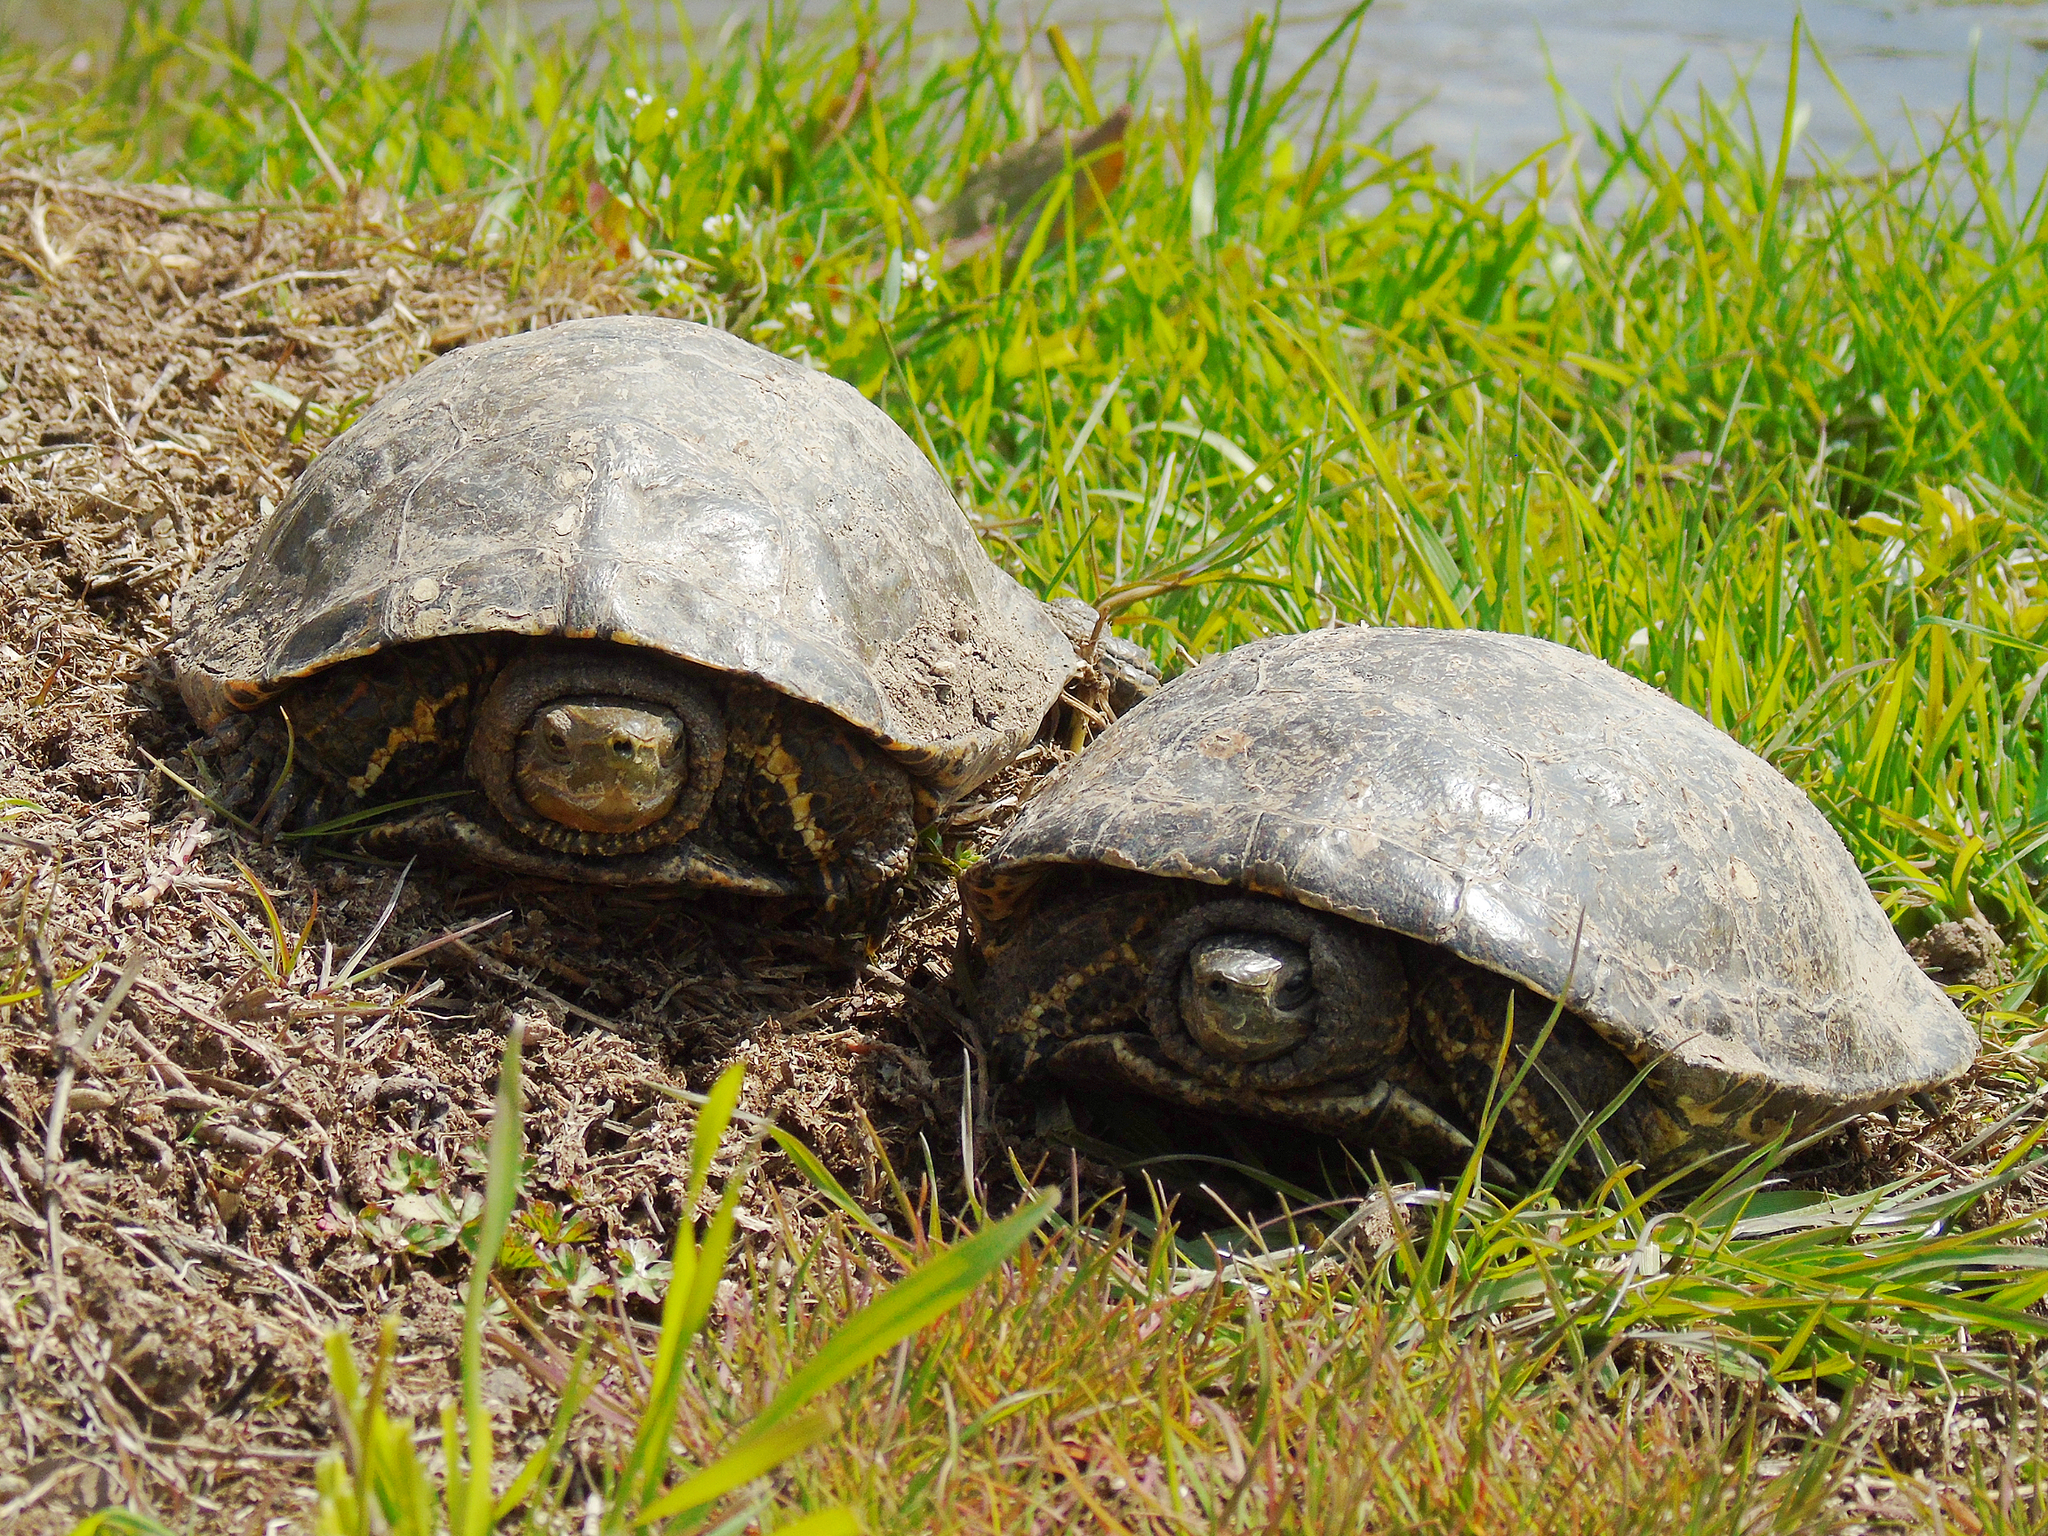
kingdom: Animalia
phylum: Chordata
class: Testudines
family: Geoemydidae
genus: Mauremys
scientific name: Mauremys caspica
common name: Caspian turtle
